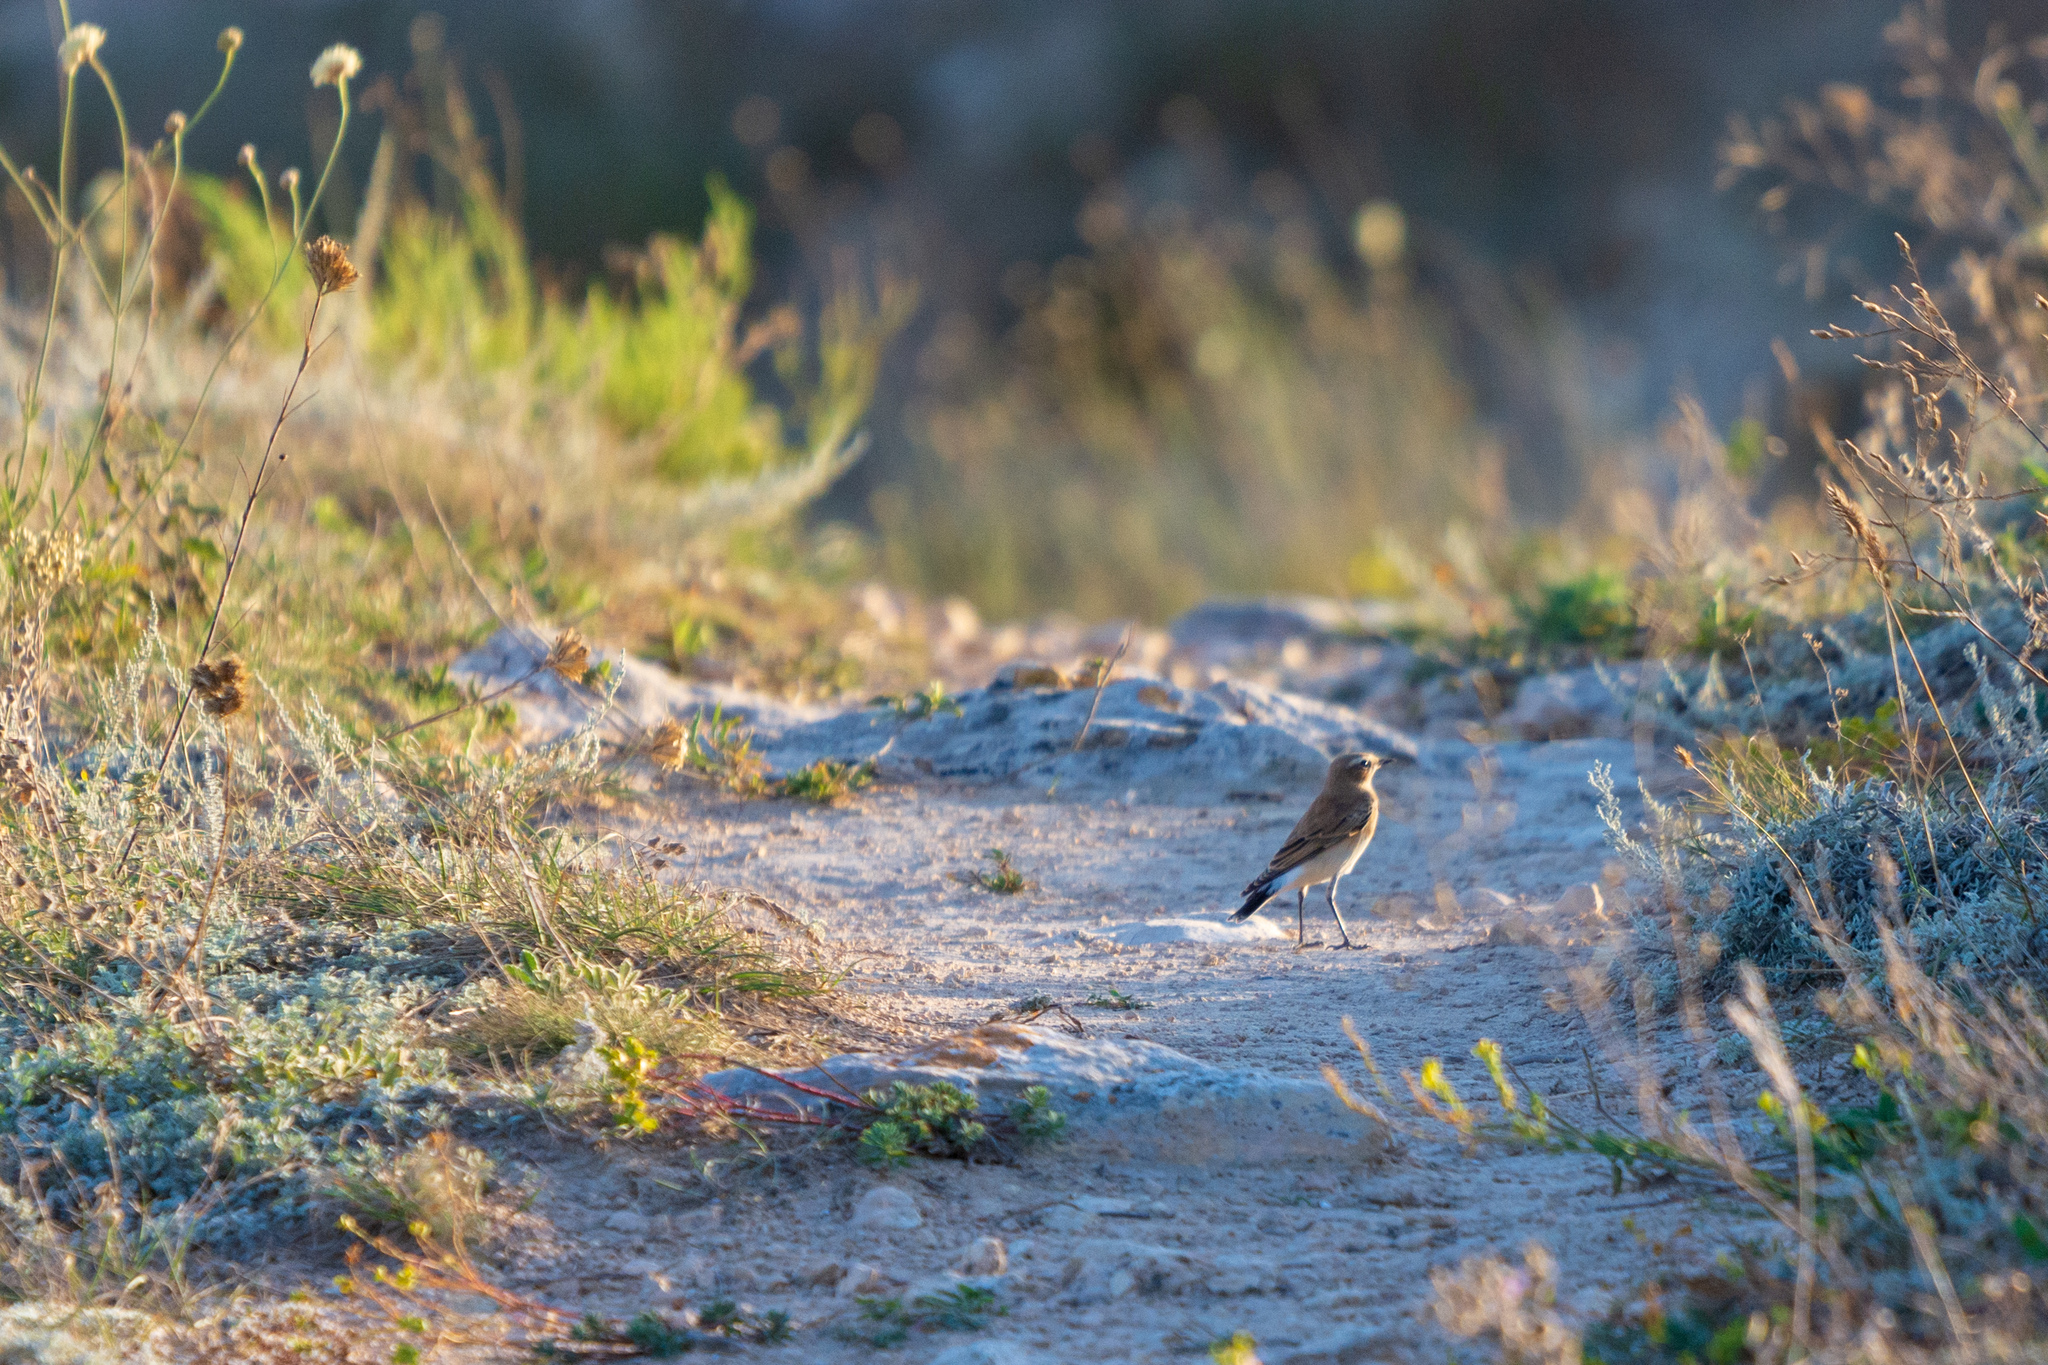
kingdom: Animalia
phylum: Chordata
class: Aves
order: Passeriformes
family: Muscicapidae
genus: Oenanthe
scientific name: Oenanthe oenanthe
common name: Northern wheatear
